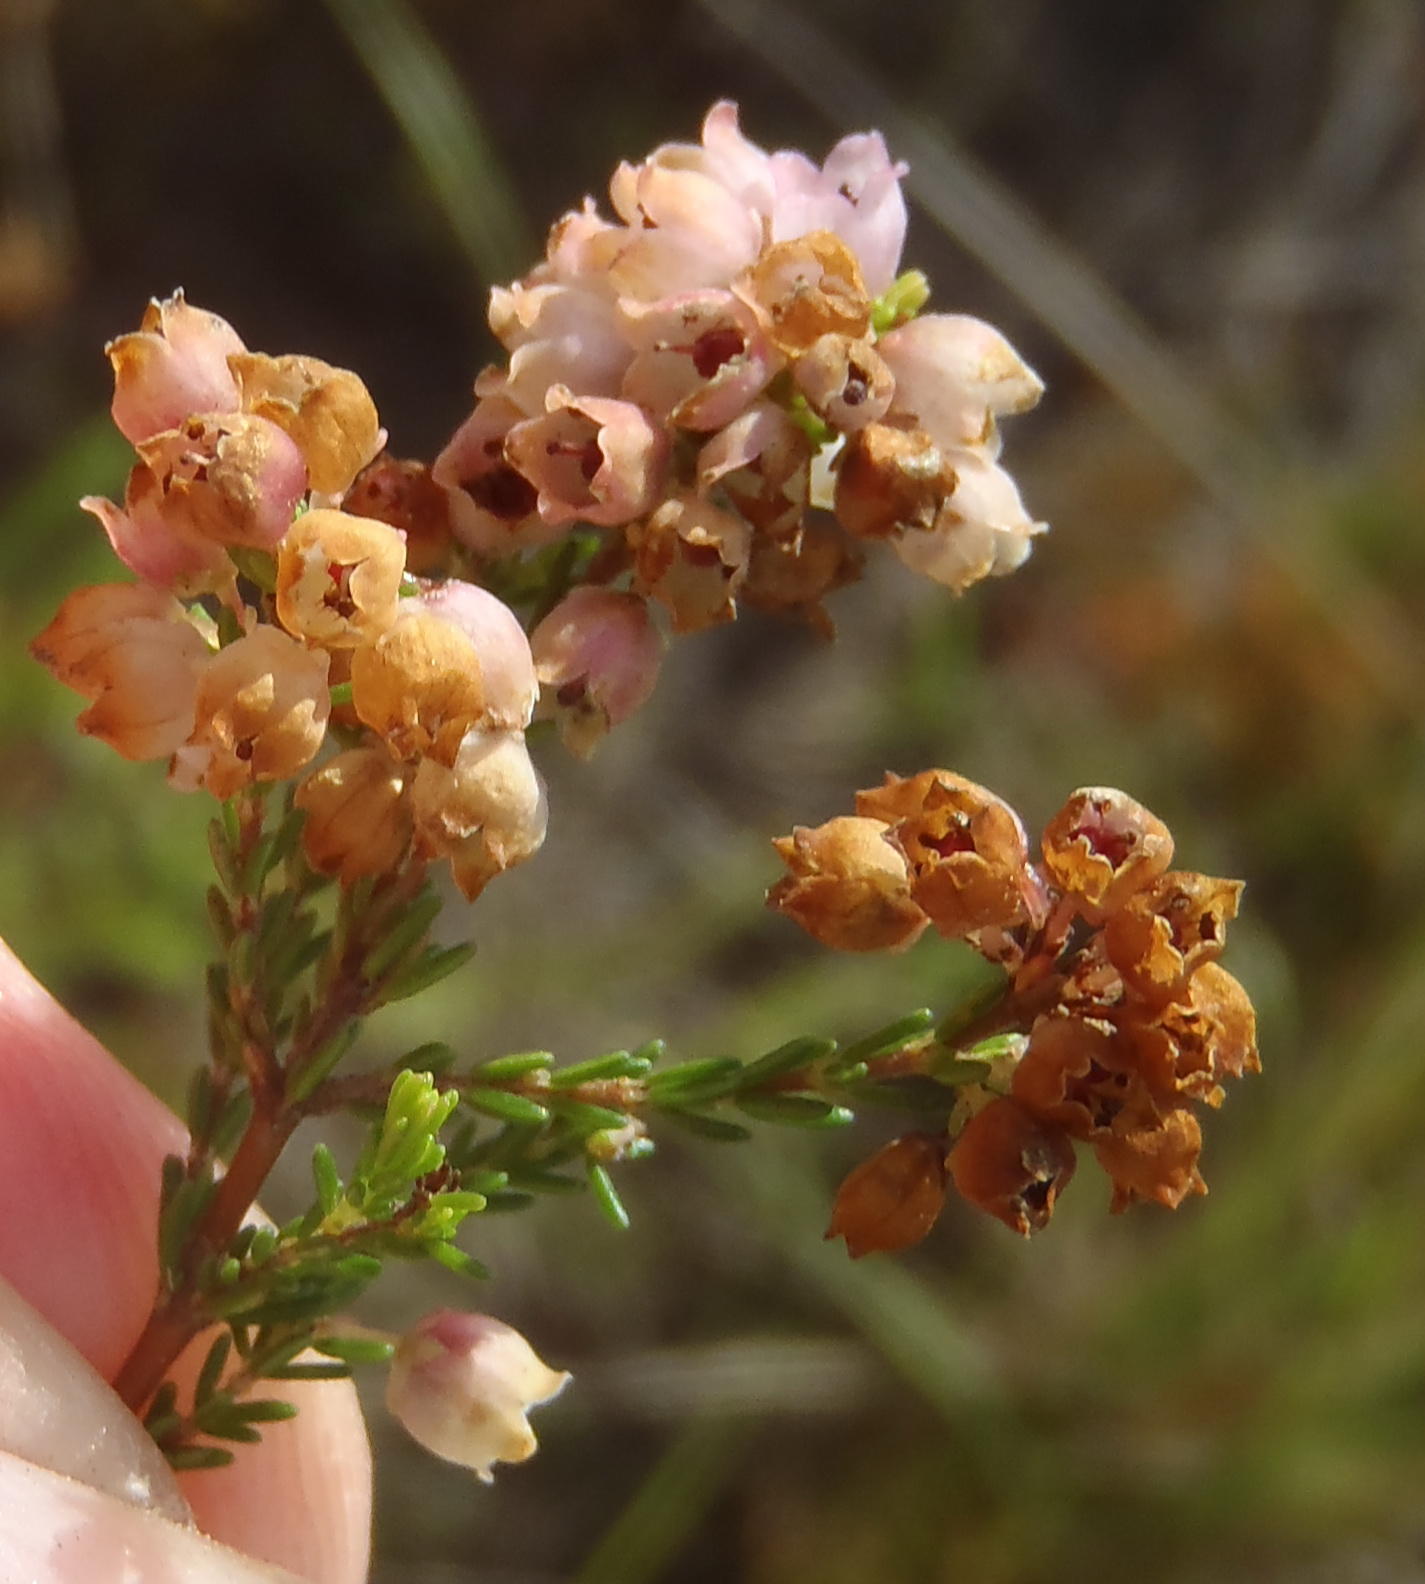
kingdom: Plantae
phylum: Tracheophyta
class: Magnoliopsida
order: Ericales
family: Ericaceae
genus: Erica
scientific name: Erica quadrangularis
